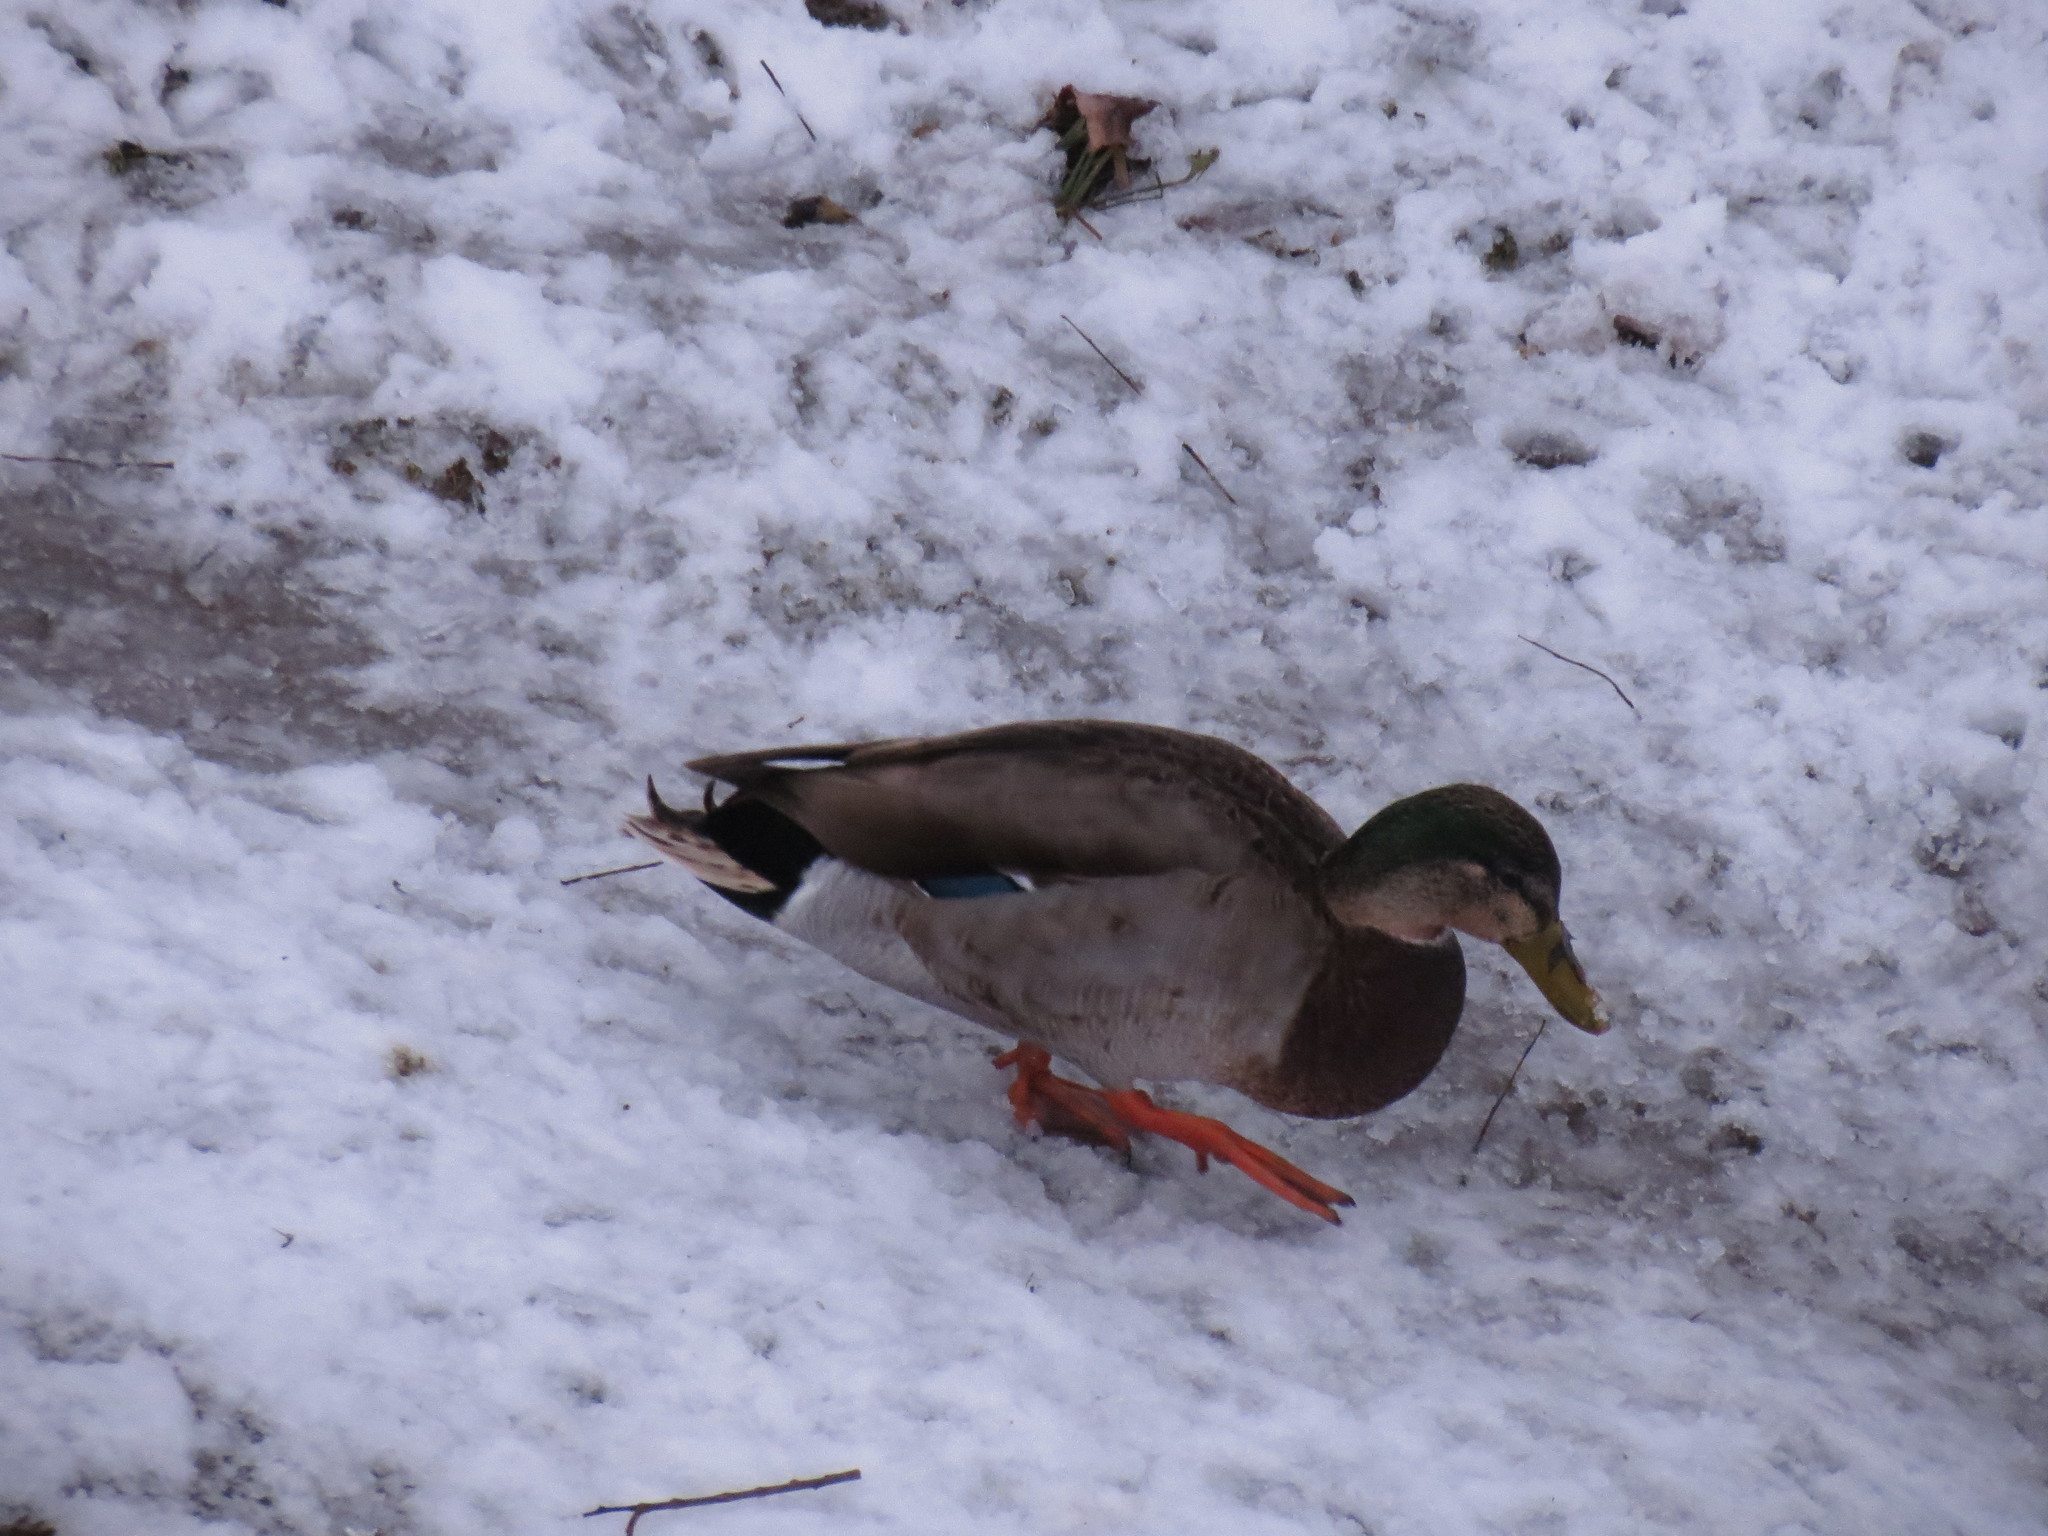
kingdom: Animalia
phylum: Chordata
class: Aves
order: Anseriformes
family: Anatidae
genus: Anas
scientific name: Anas platyrhynchos
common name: Mallard
